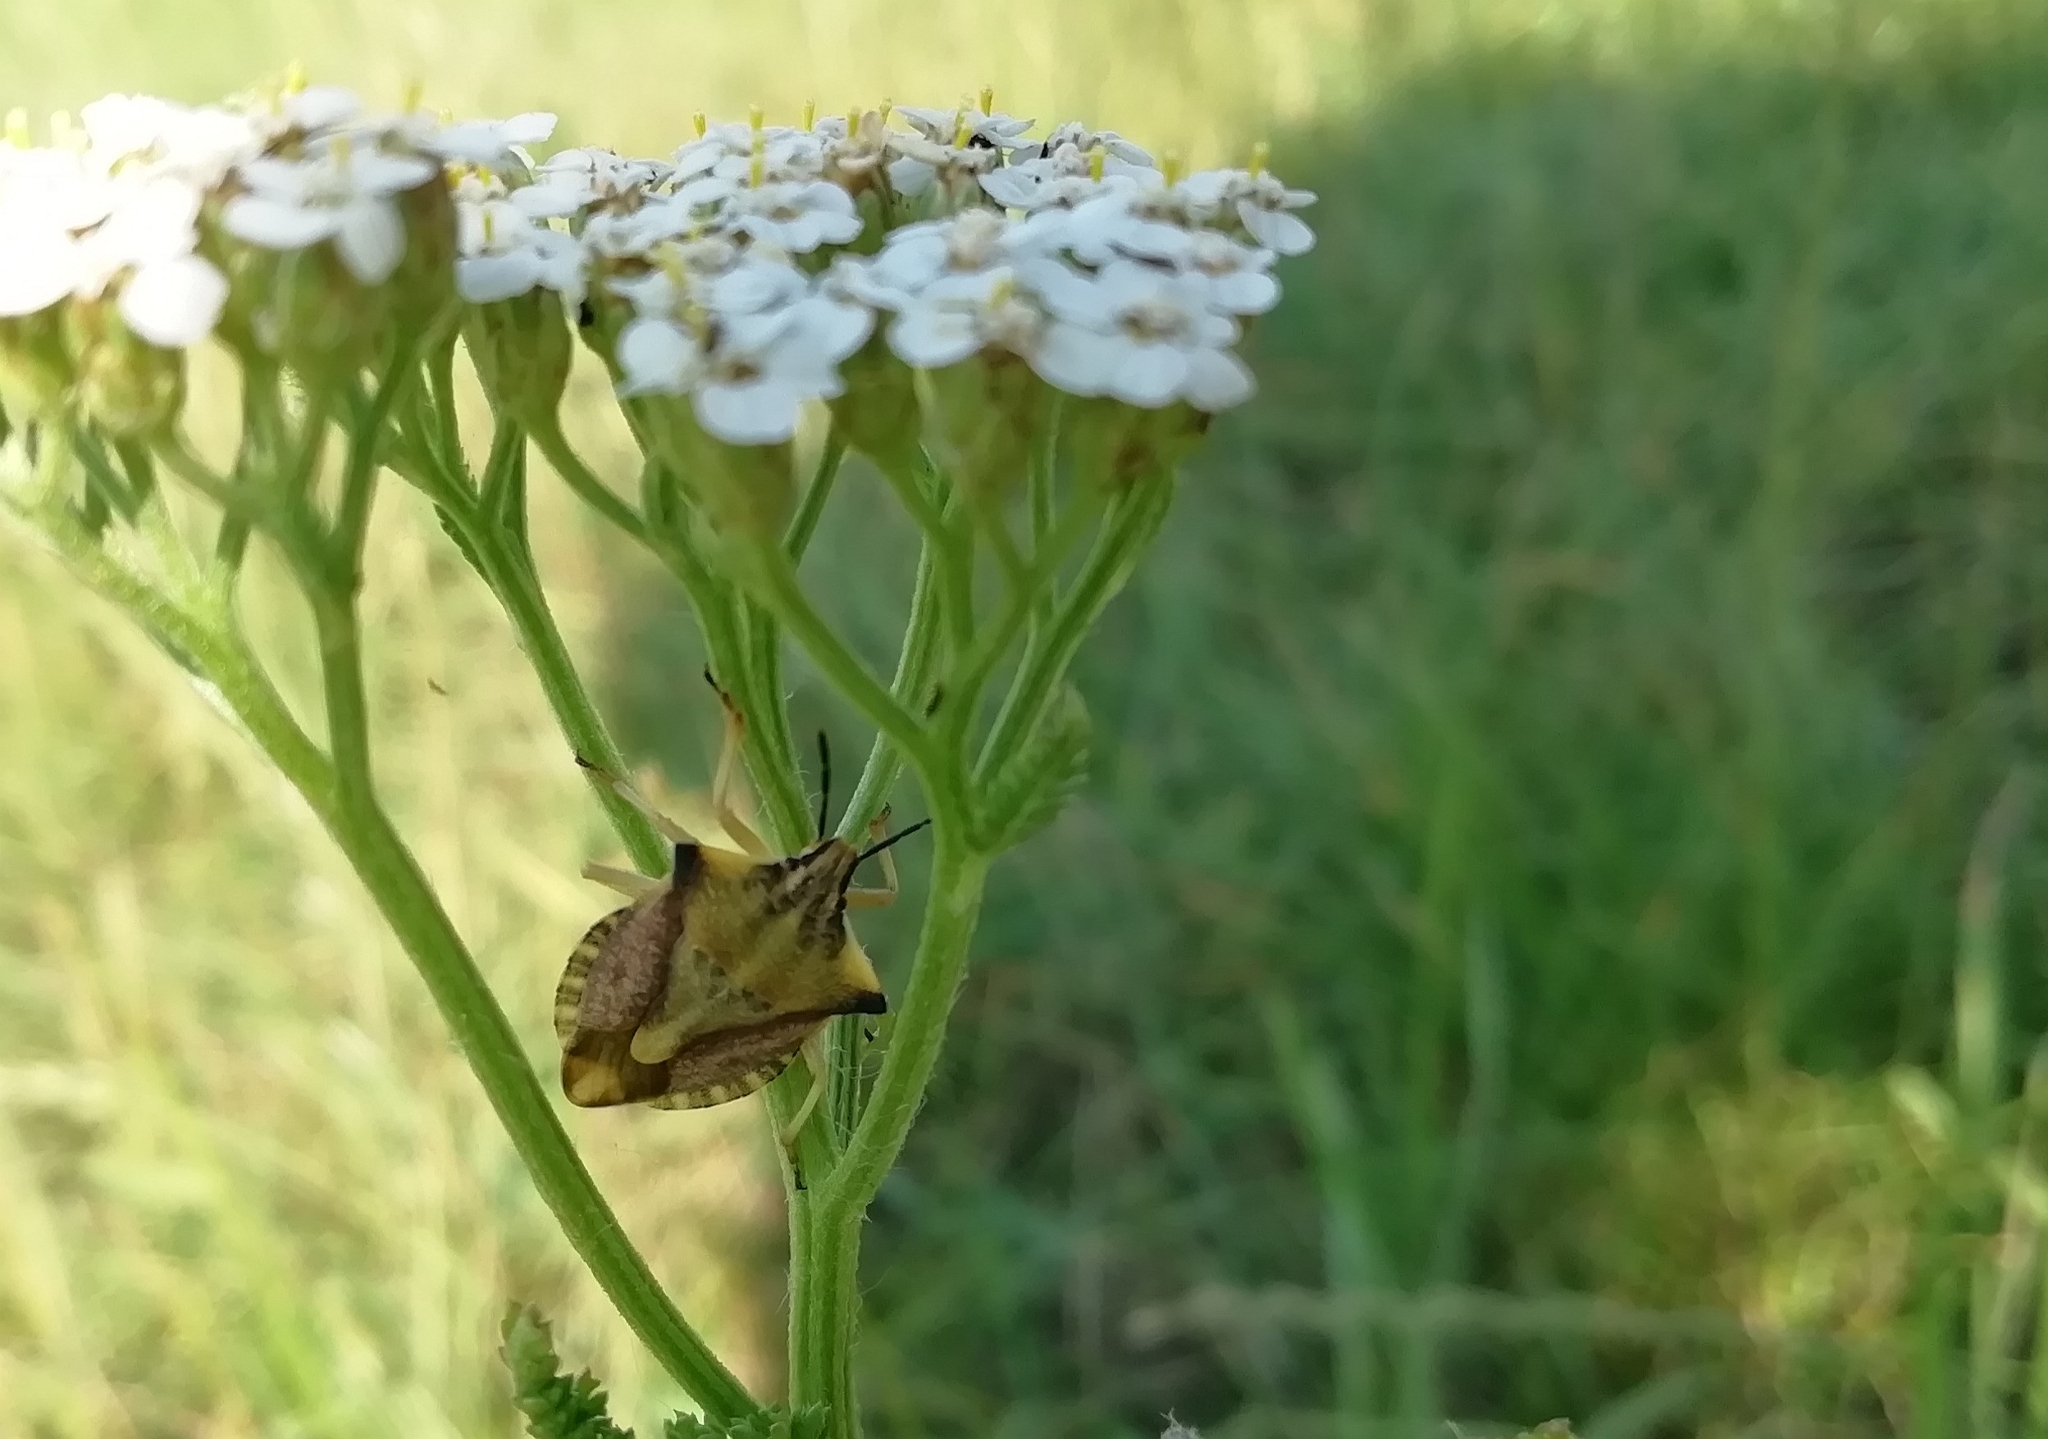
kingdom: Animalia
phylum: Arthropoda
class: Insecta
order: Hemiptera
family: Pentatomidae
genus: Carpocoris
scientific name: Carpocoris fuscispinus
